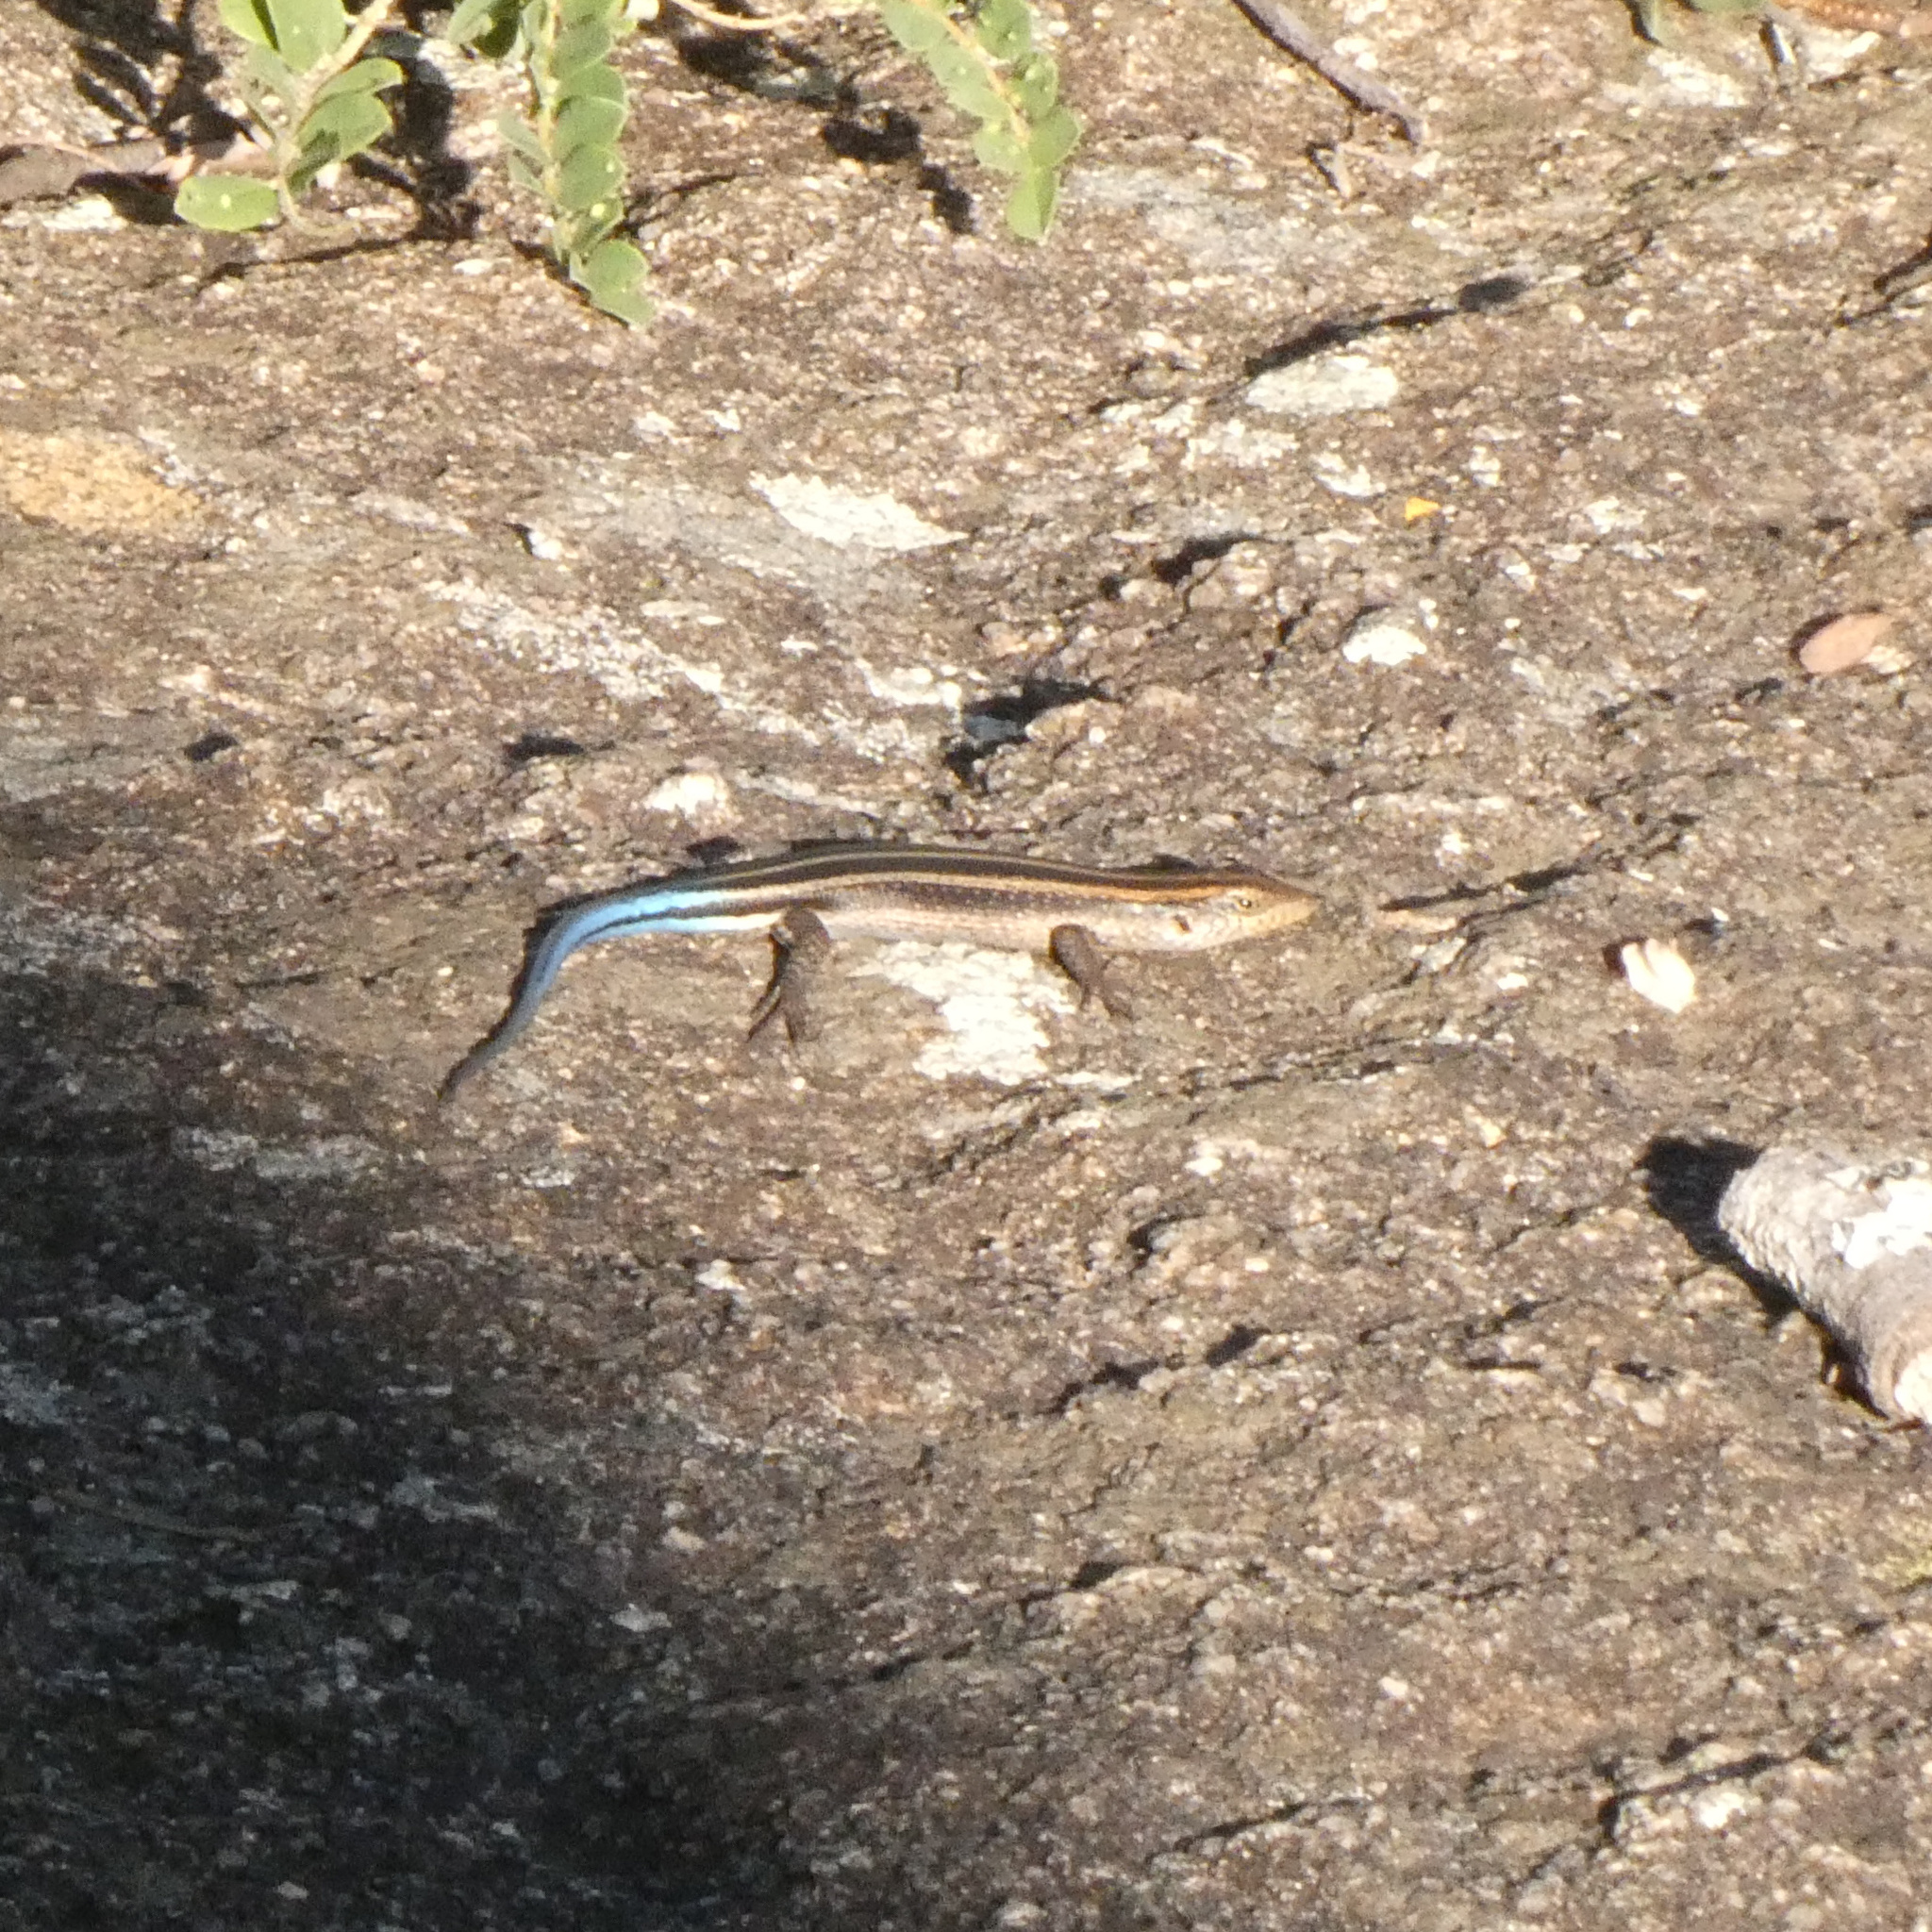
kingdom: Animalia
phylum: Chordata
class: Squamata
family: Scincidae
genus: Trachylepis
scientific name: Trachylepis margaritifera
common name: Rainbow skink
